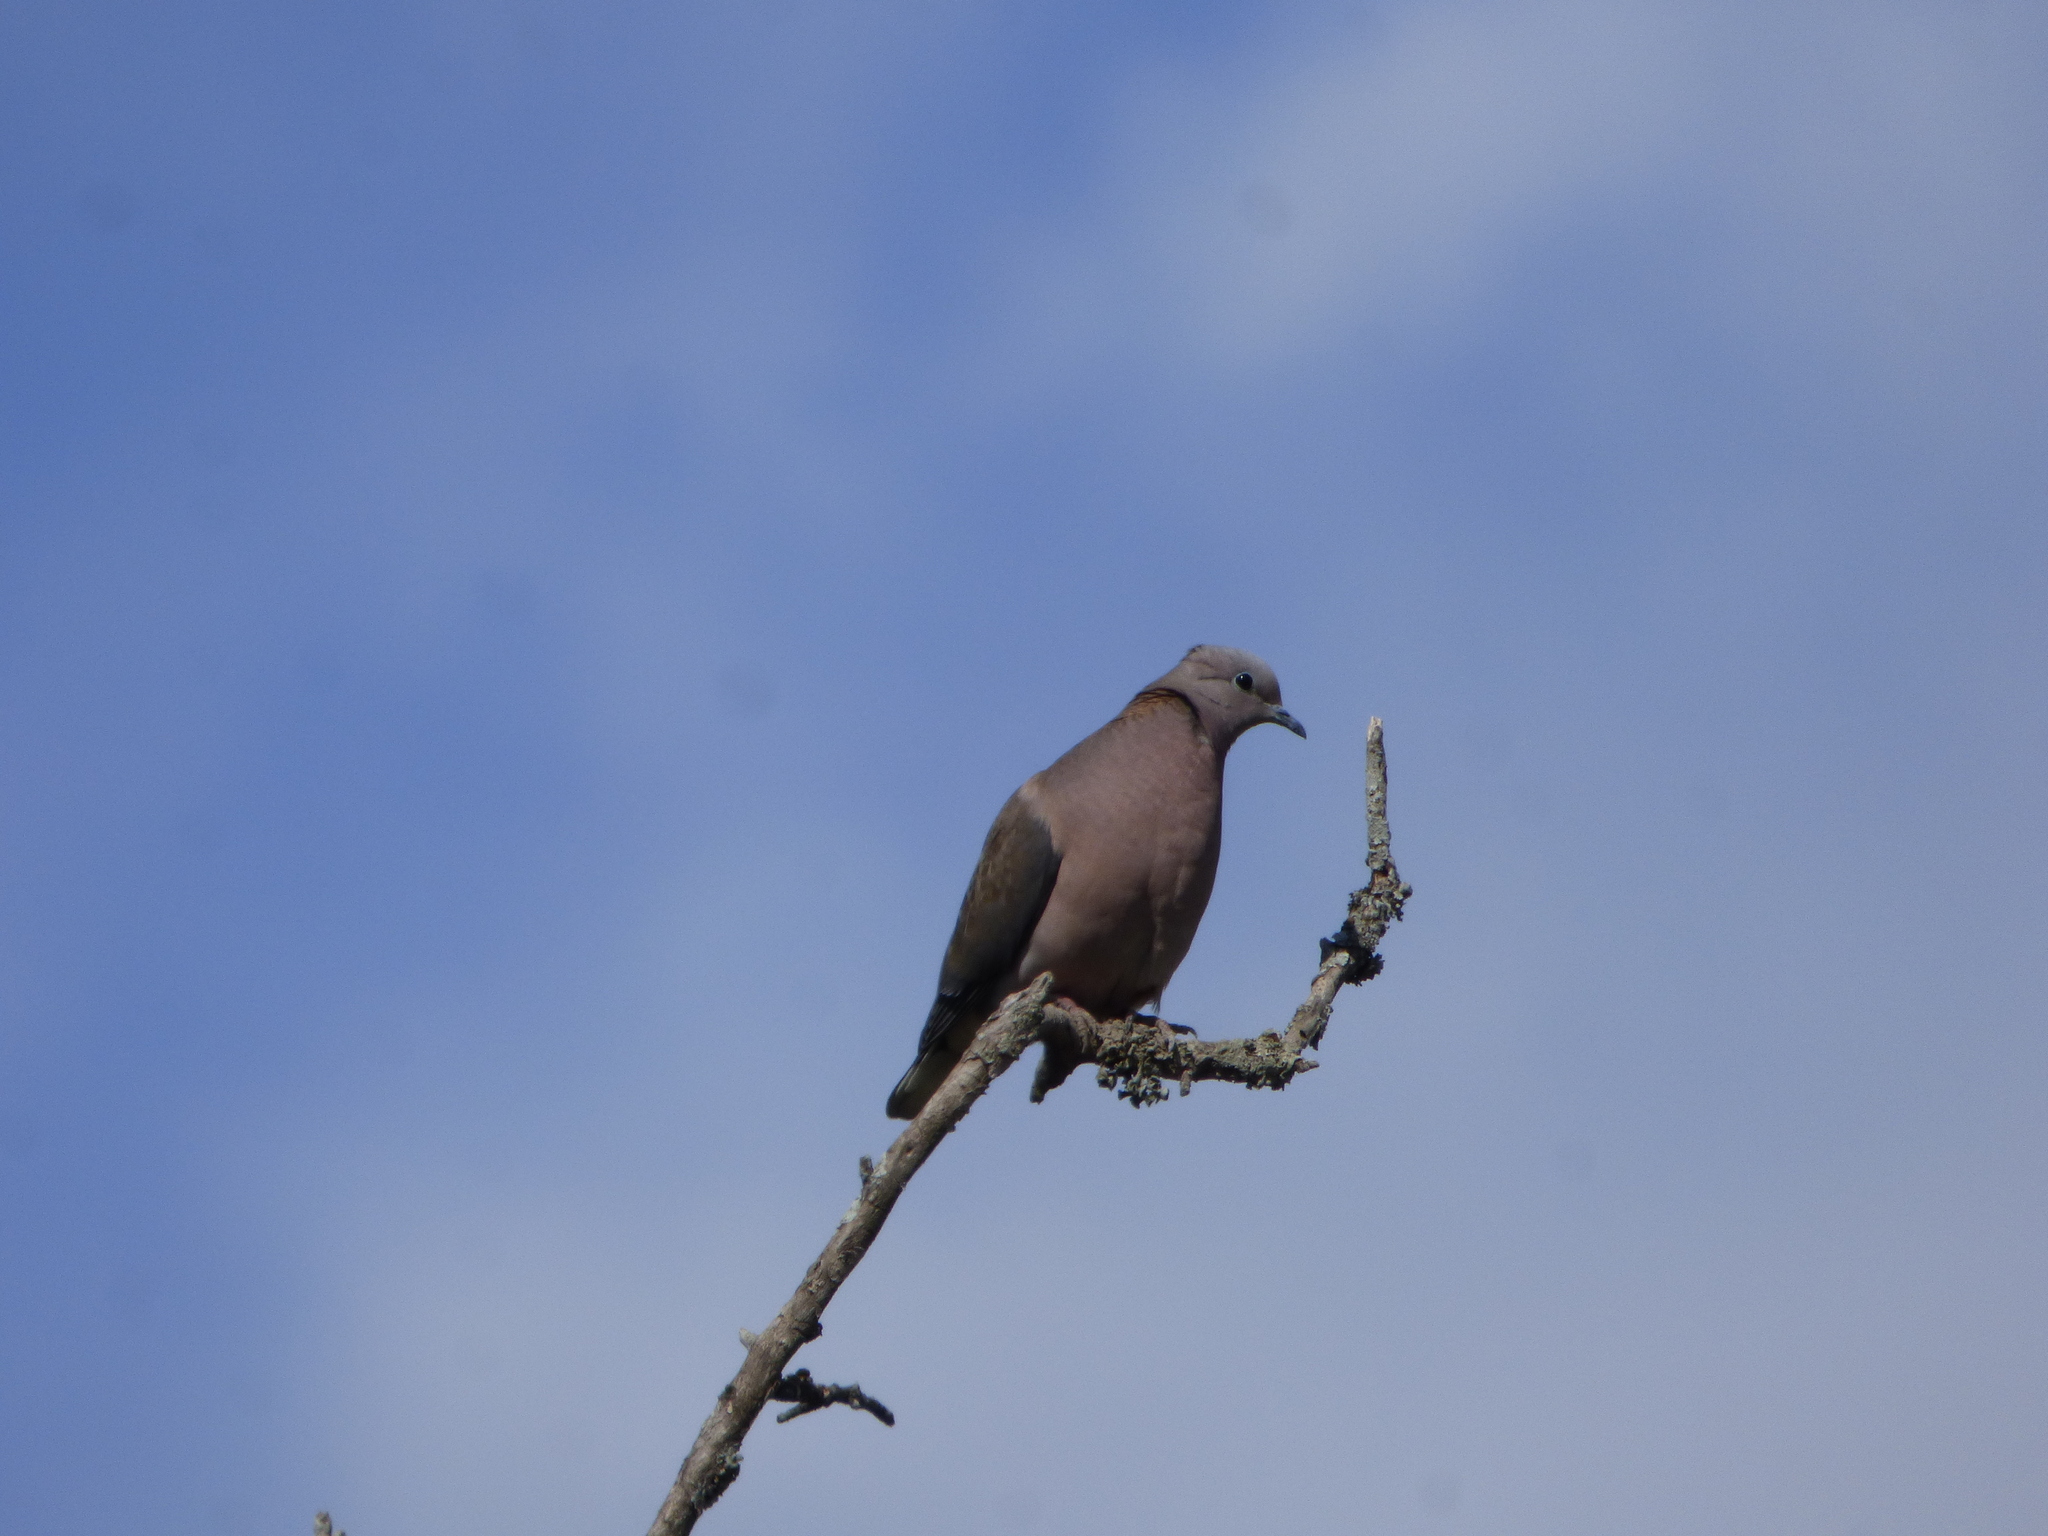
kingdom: Animalia
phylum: Chordata
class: Aves
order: Columbiformes
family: Columbidae
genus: Zenaida
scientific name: Zenaida auriculata
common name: Eared dove
